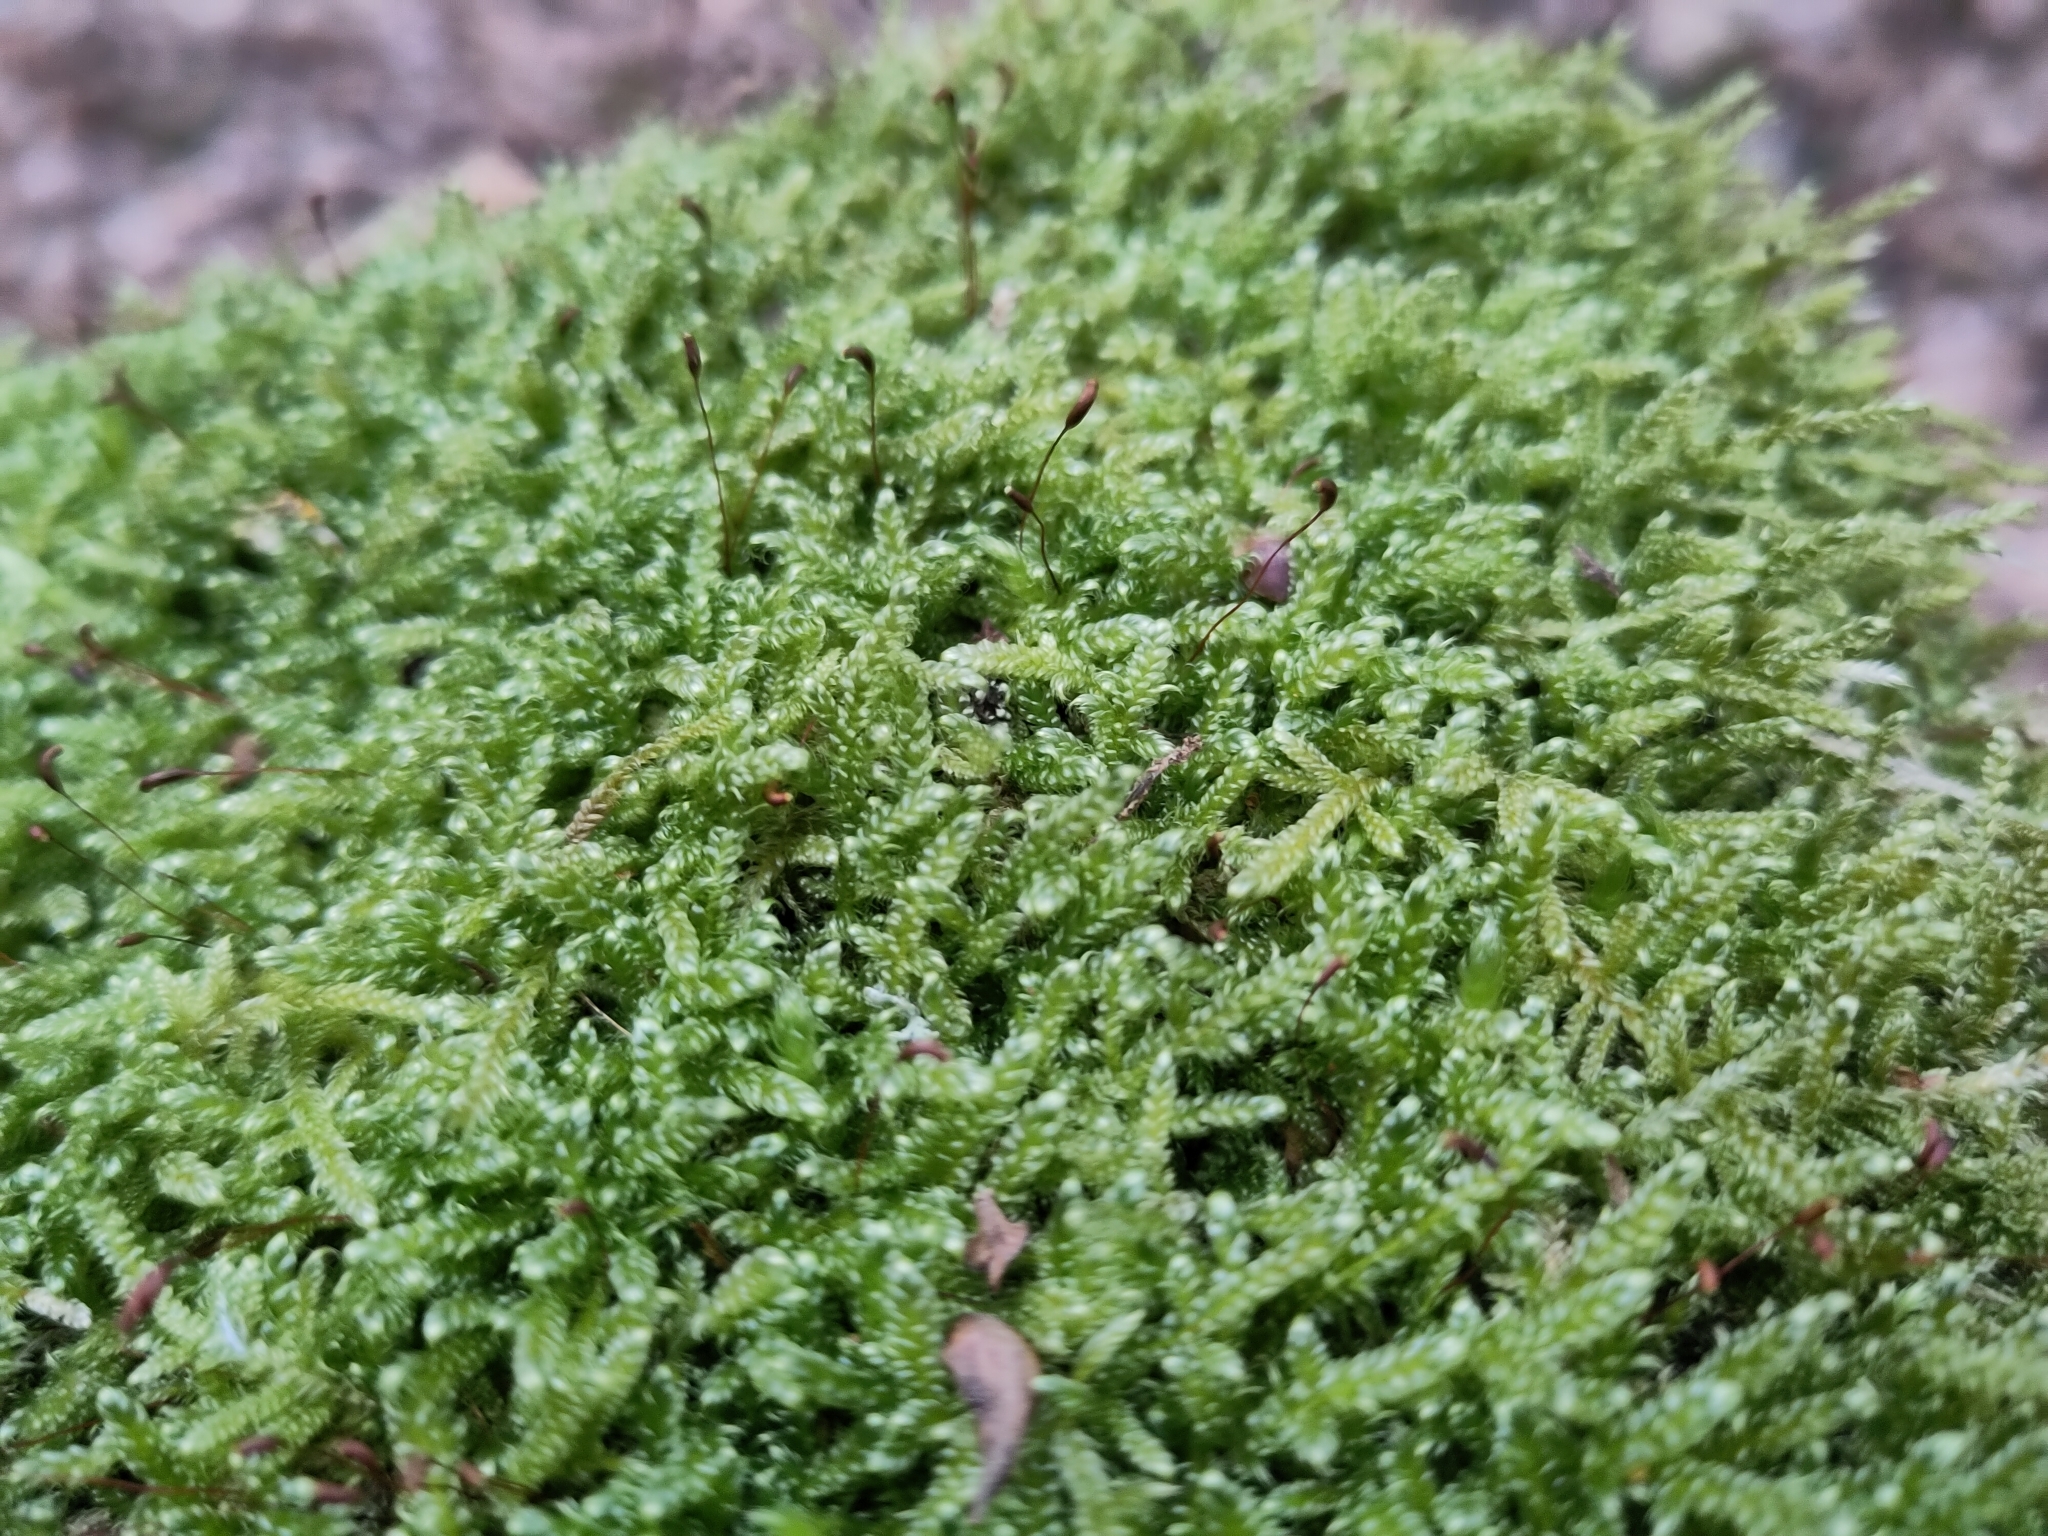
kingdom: Plantae
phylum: Bryophyta
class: Bryopsida
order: Hypnales
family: Hypnaceae
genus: Hypnum
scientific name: Hypnum cupressiforme
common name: Cypress-leaved plait-moss
